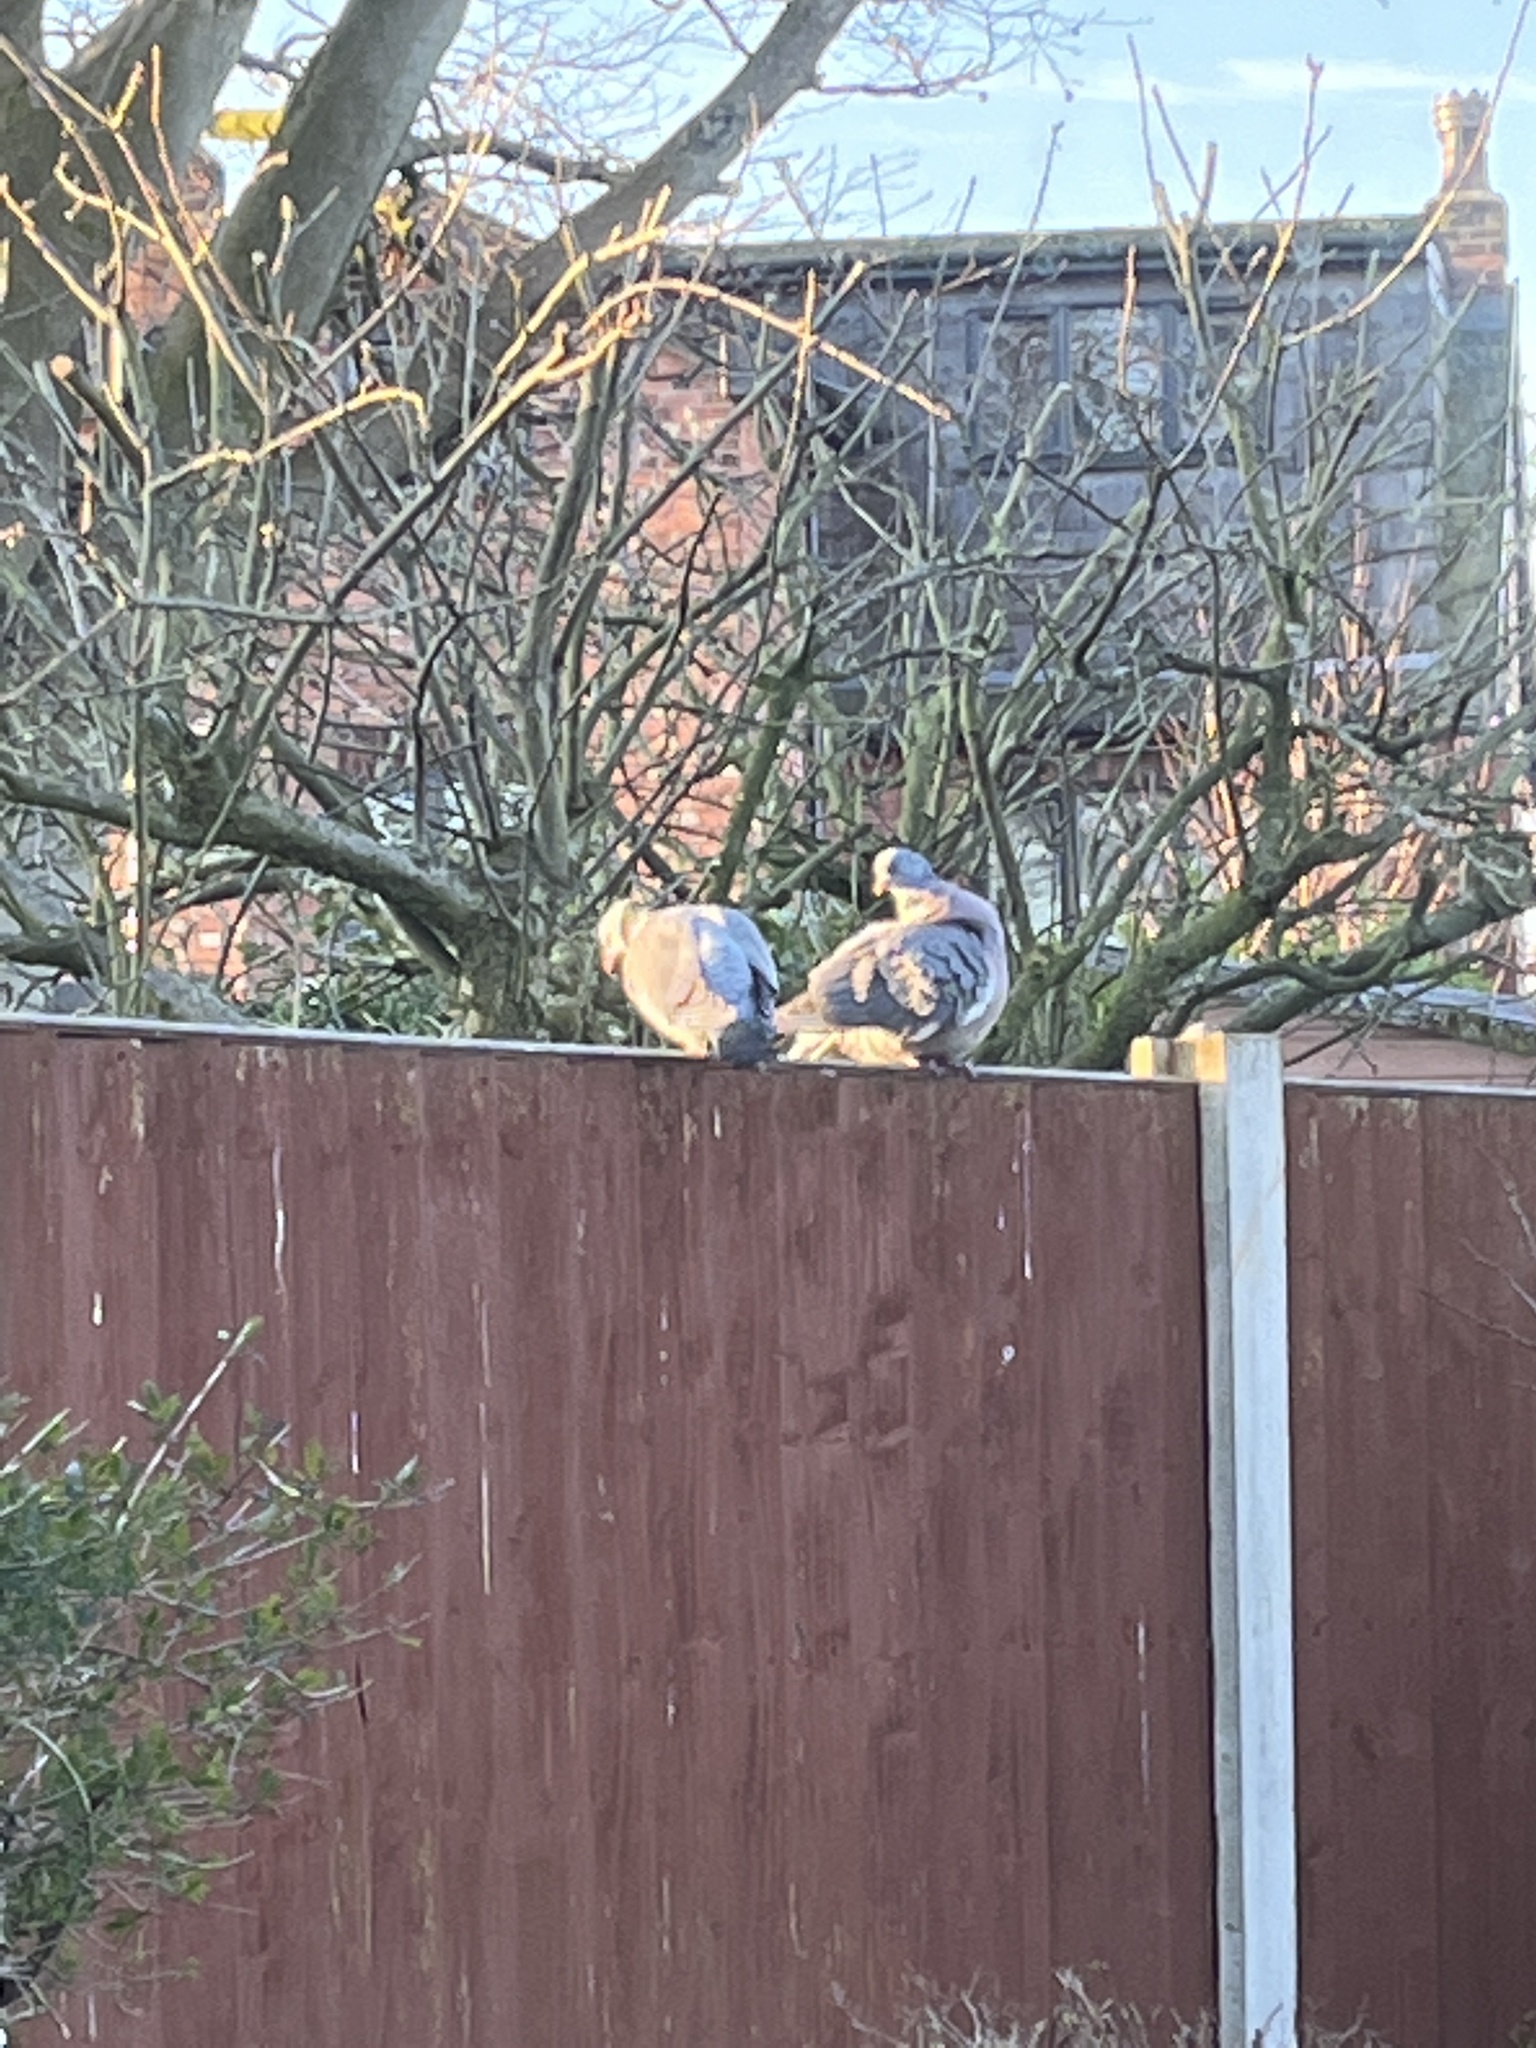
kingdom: Animalia
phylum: Chordata
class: Aves
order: Columbiformes
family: Columbidae
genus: Columba
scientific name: Columba palumbus
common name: Common wood pigeon
